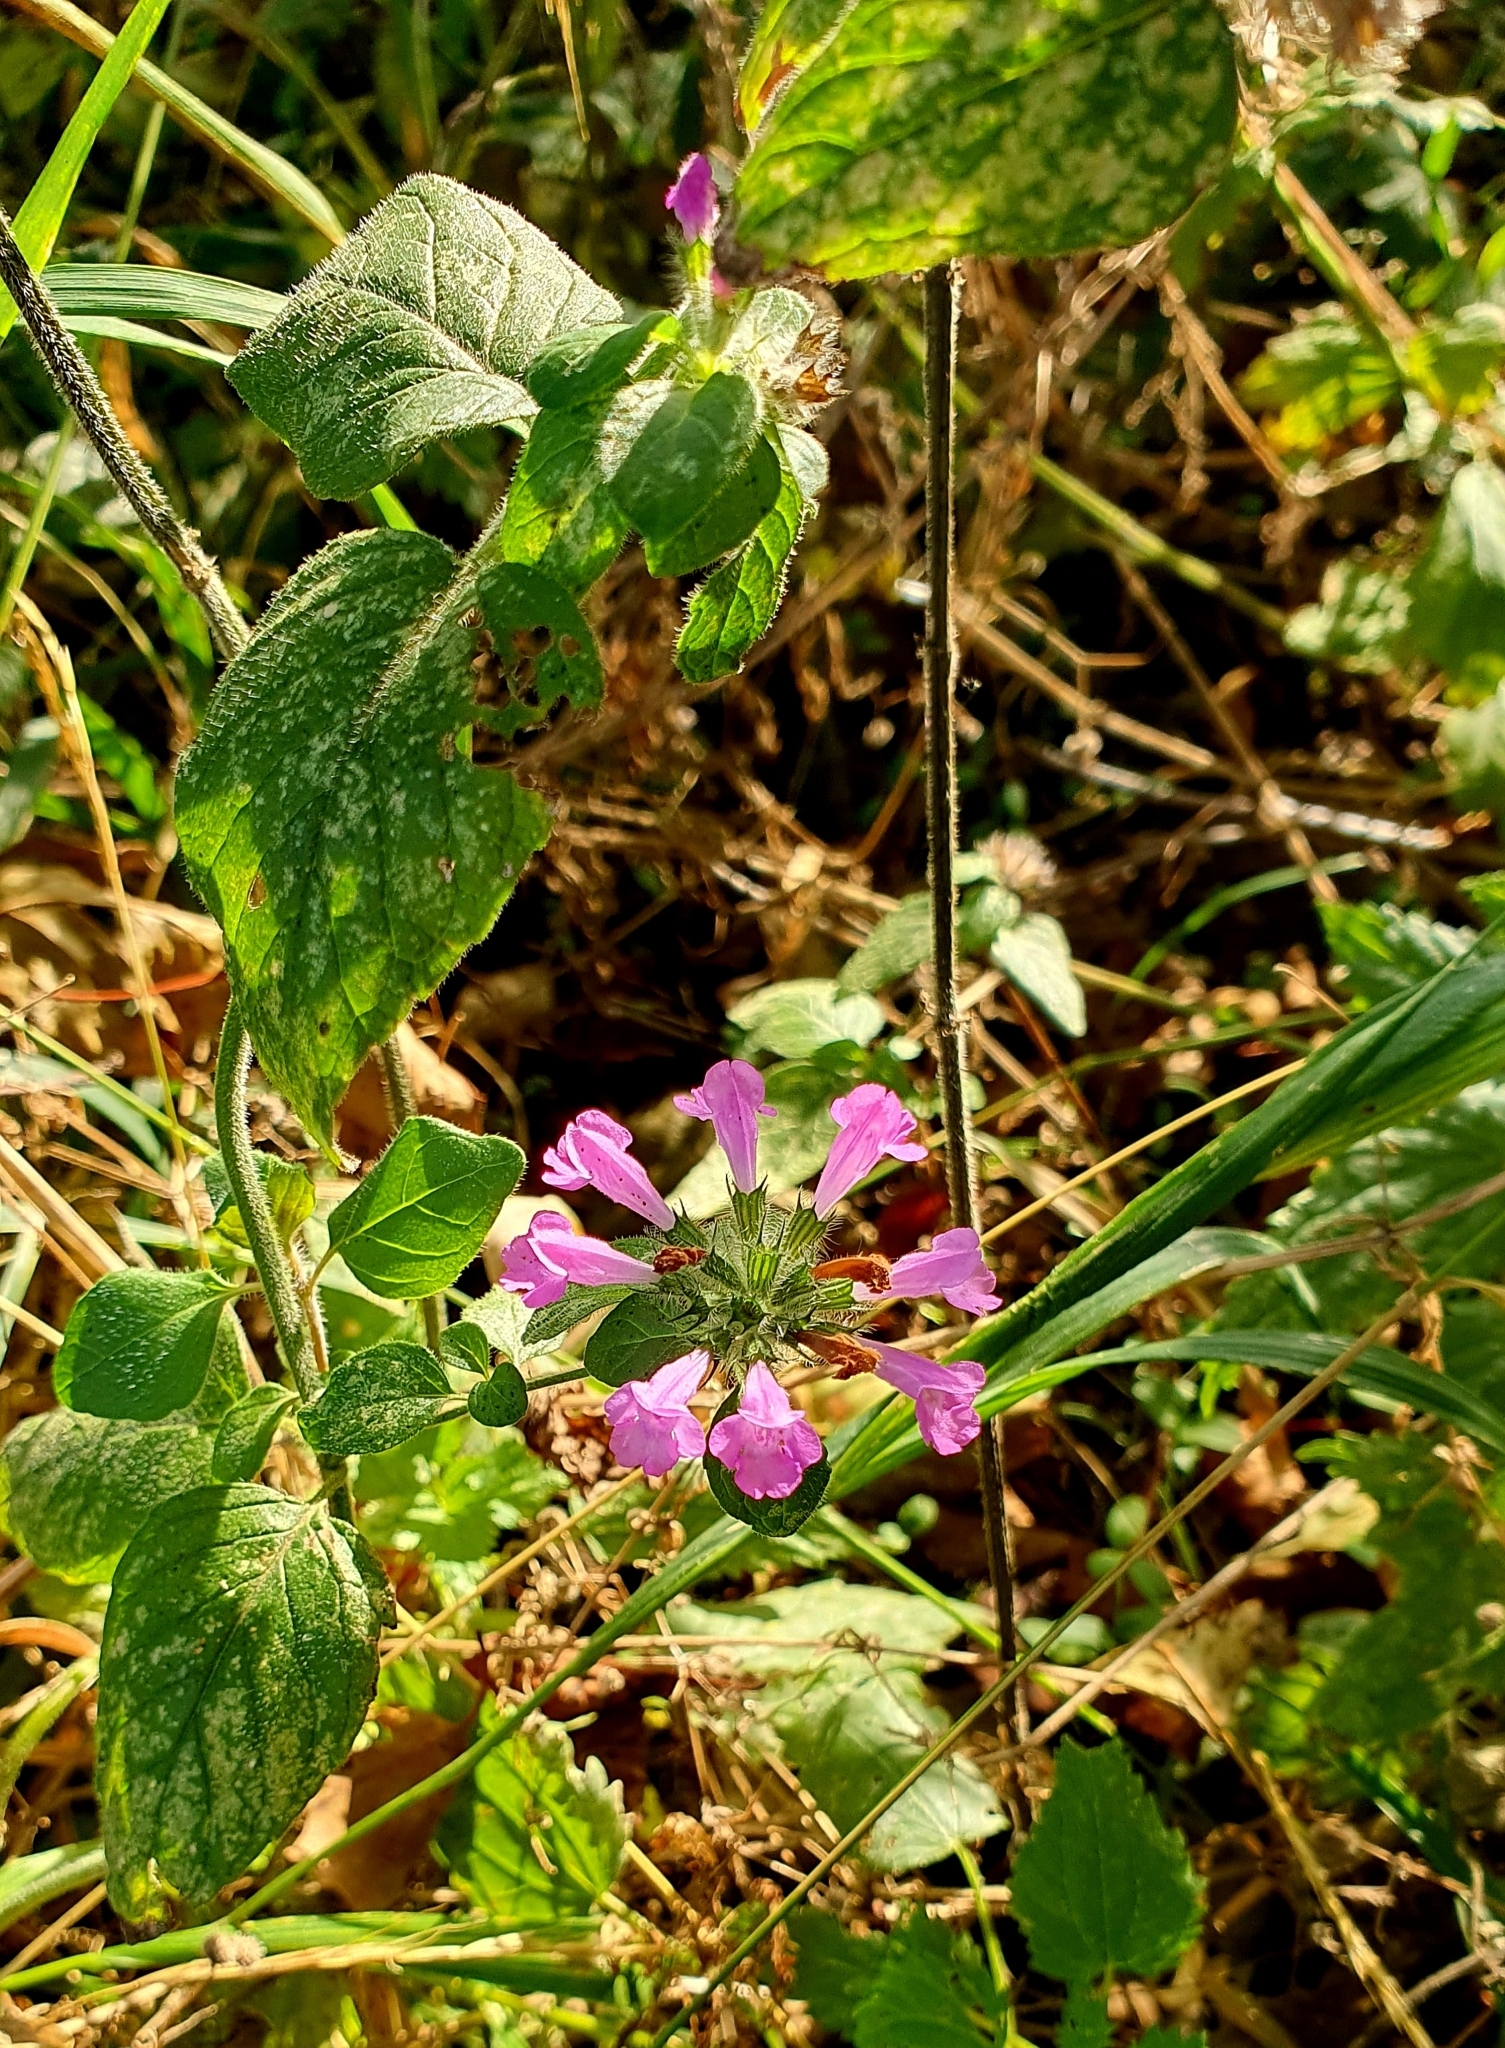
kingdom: Plantae
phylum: Tracheophyta
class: Magnoliopsida
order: Lamiales
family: Lamiaceae
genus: Clinopodium
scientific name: Clinopodium vulgare
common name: Wild basil
